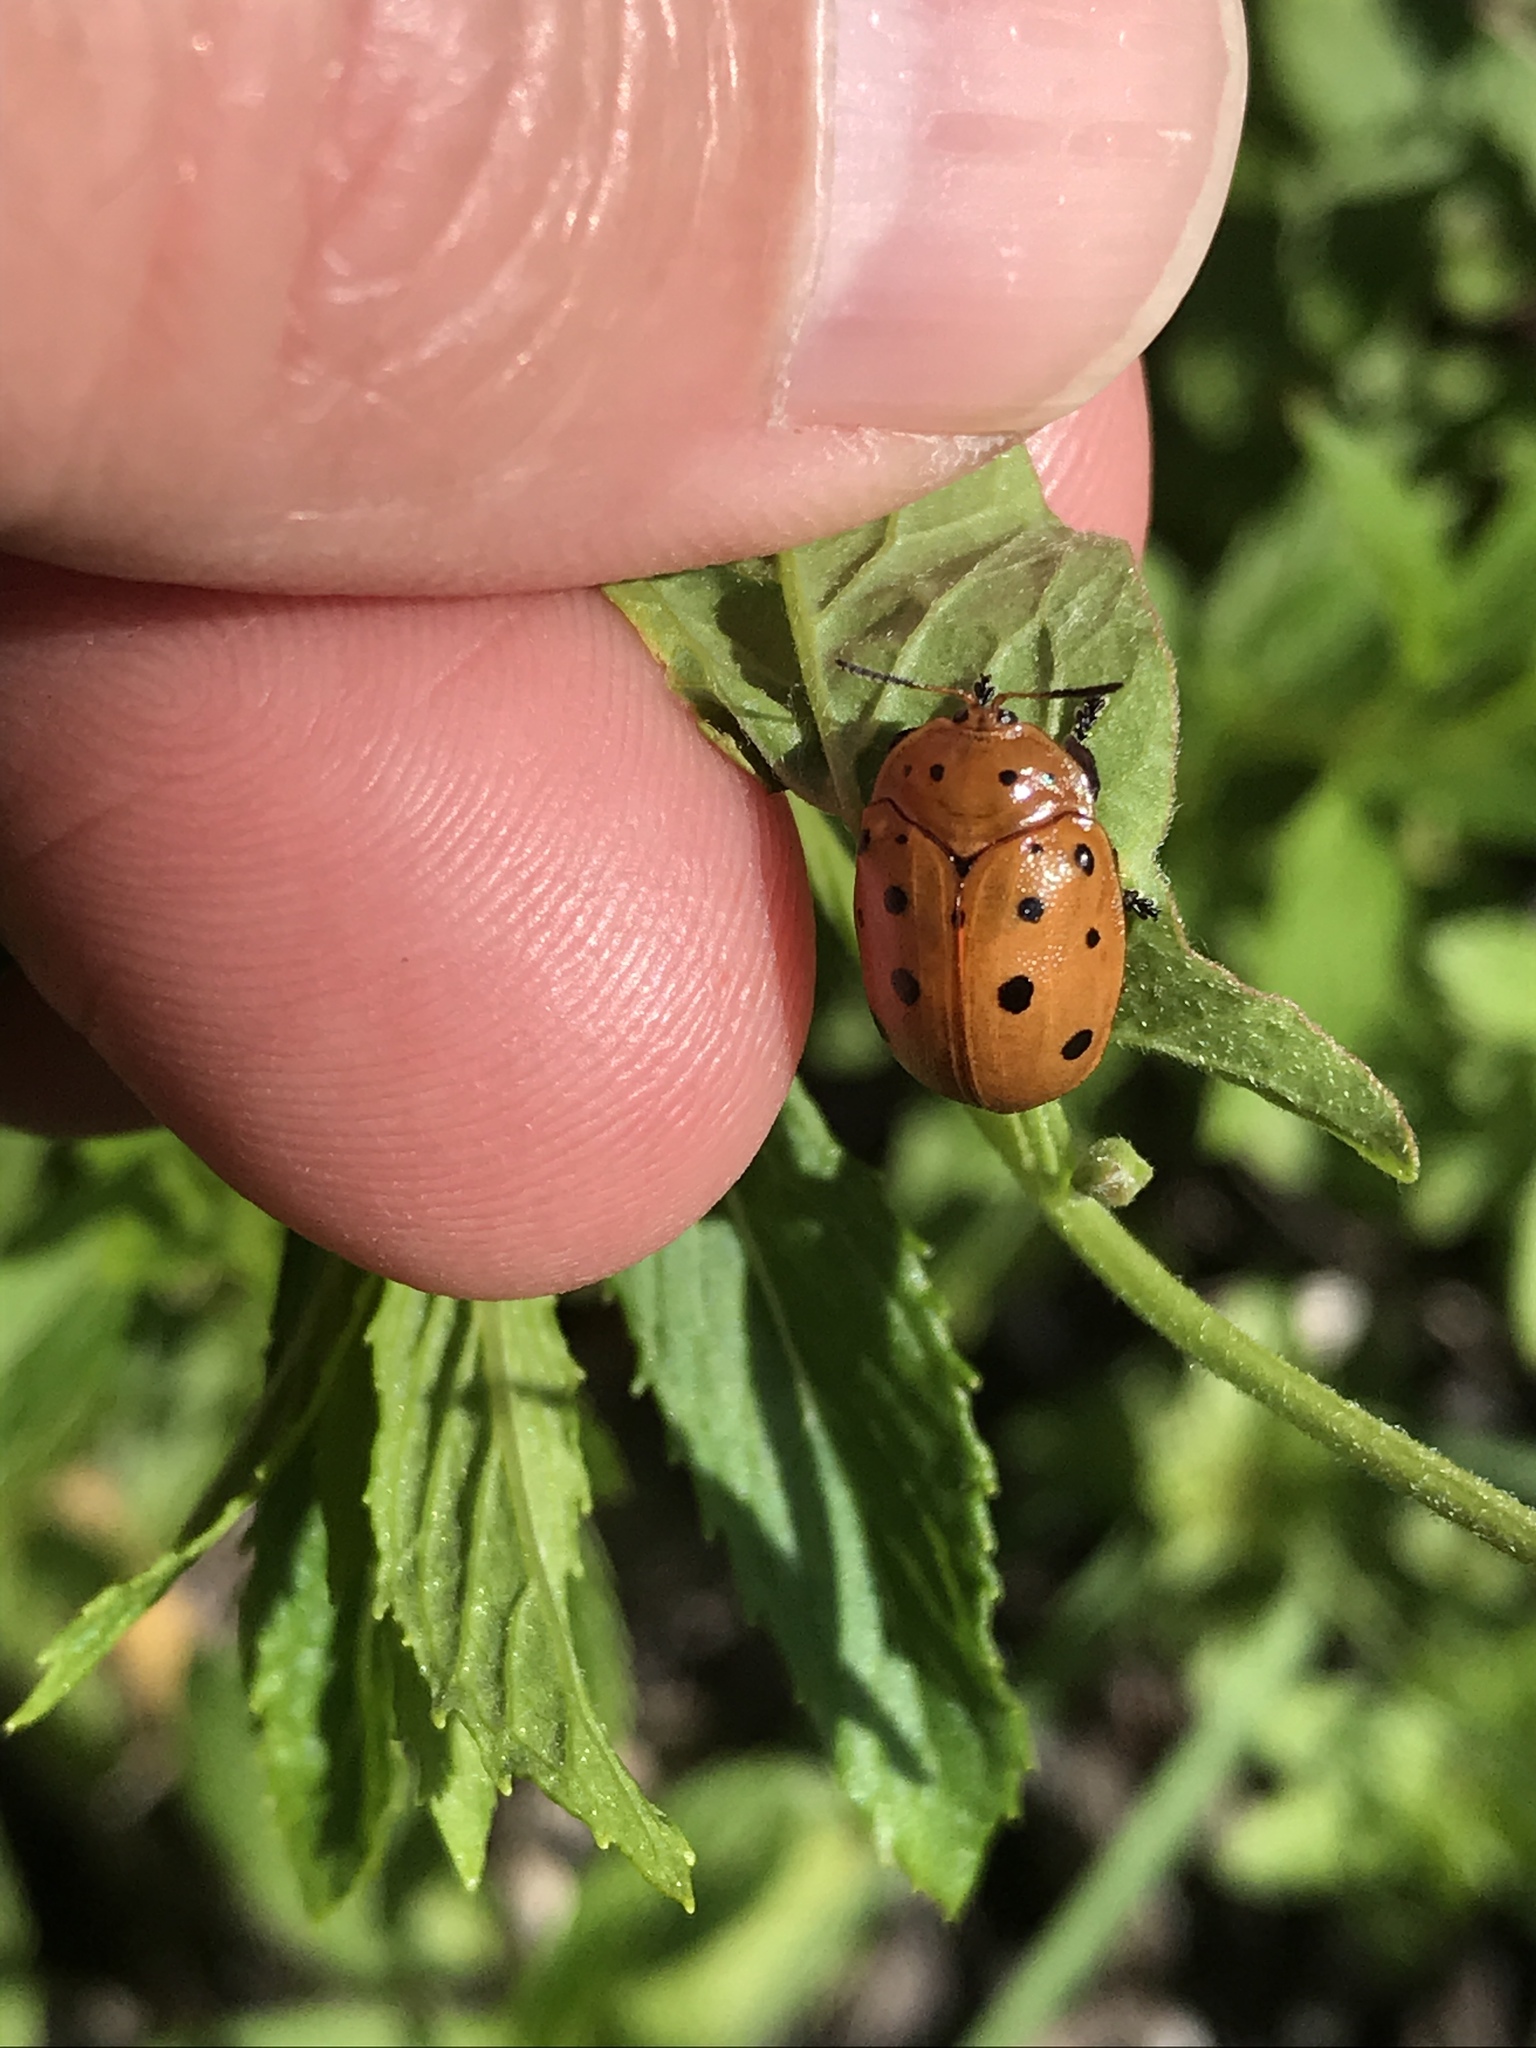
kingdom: Animalia
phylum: Arthropoda
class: Insecta
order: Coleoptera
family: Chrysomelidae
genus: Chelymorpha
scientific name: Chelymorpha cassidea
